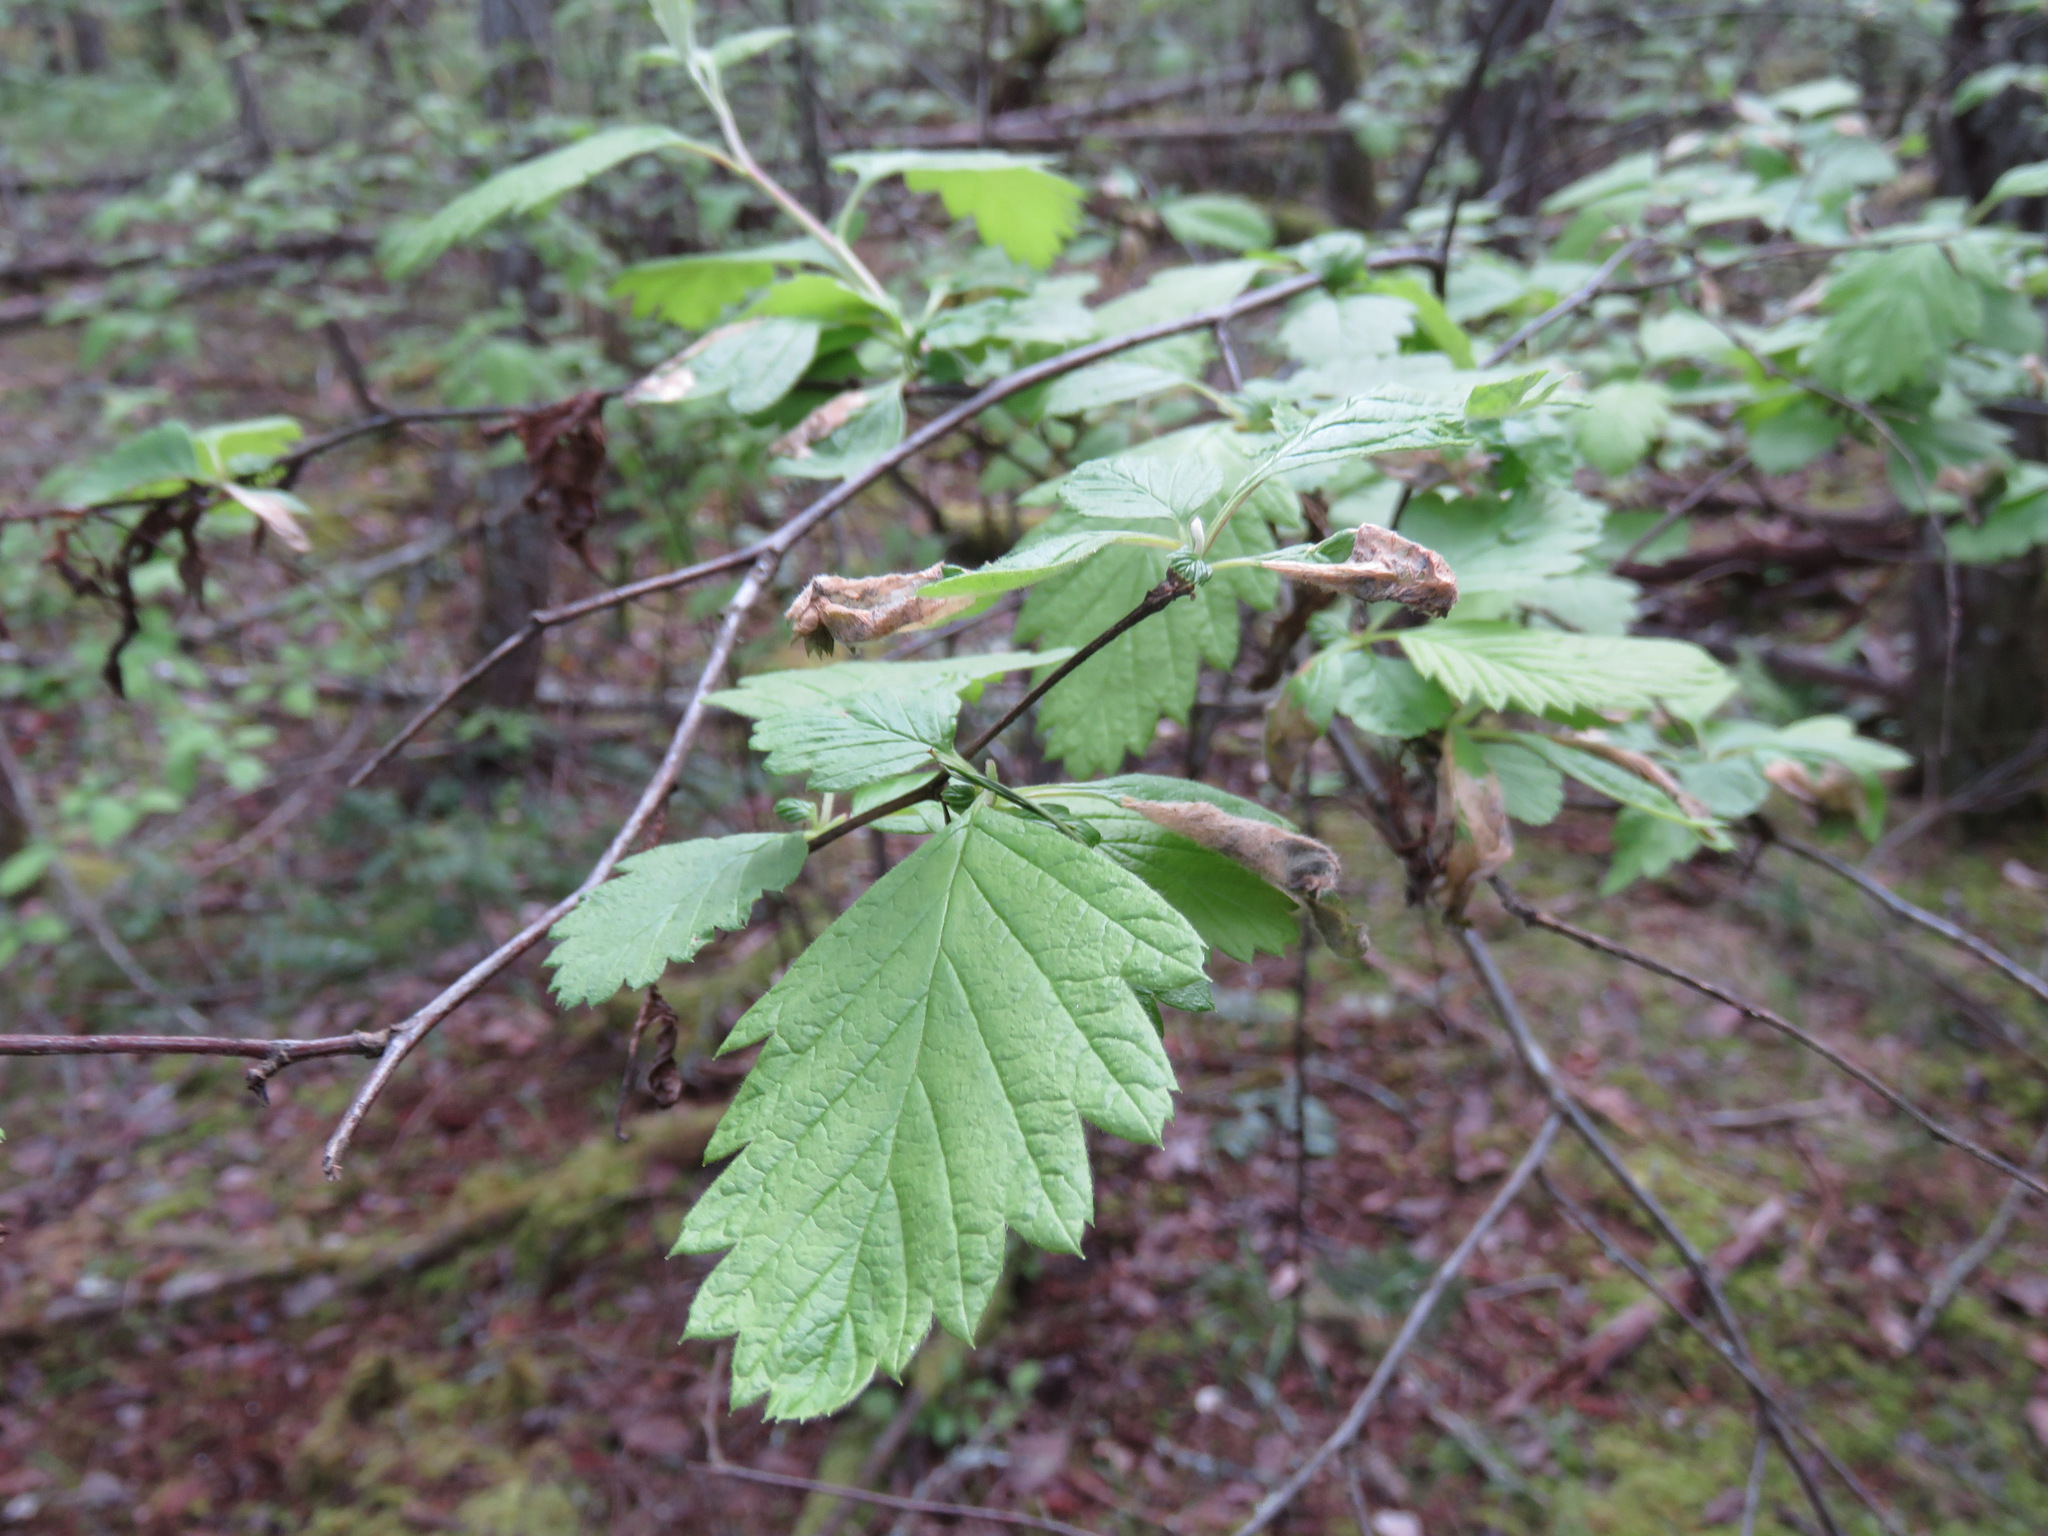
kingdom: Plantae
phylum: Tracheophyta
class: Magnoliopsida
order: Rosales
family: Rosaceae
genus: Holodiscus
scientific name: Holodiscus discolor
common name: Oceanspray
